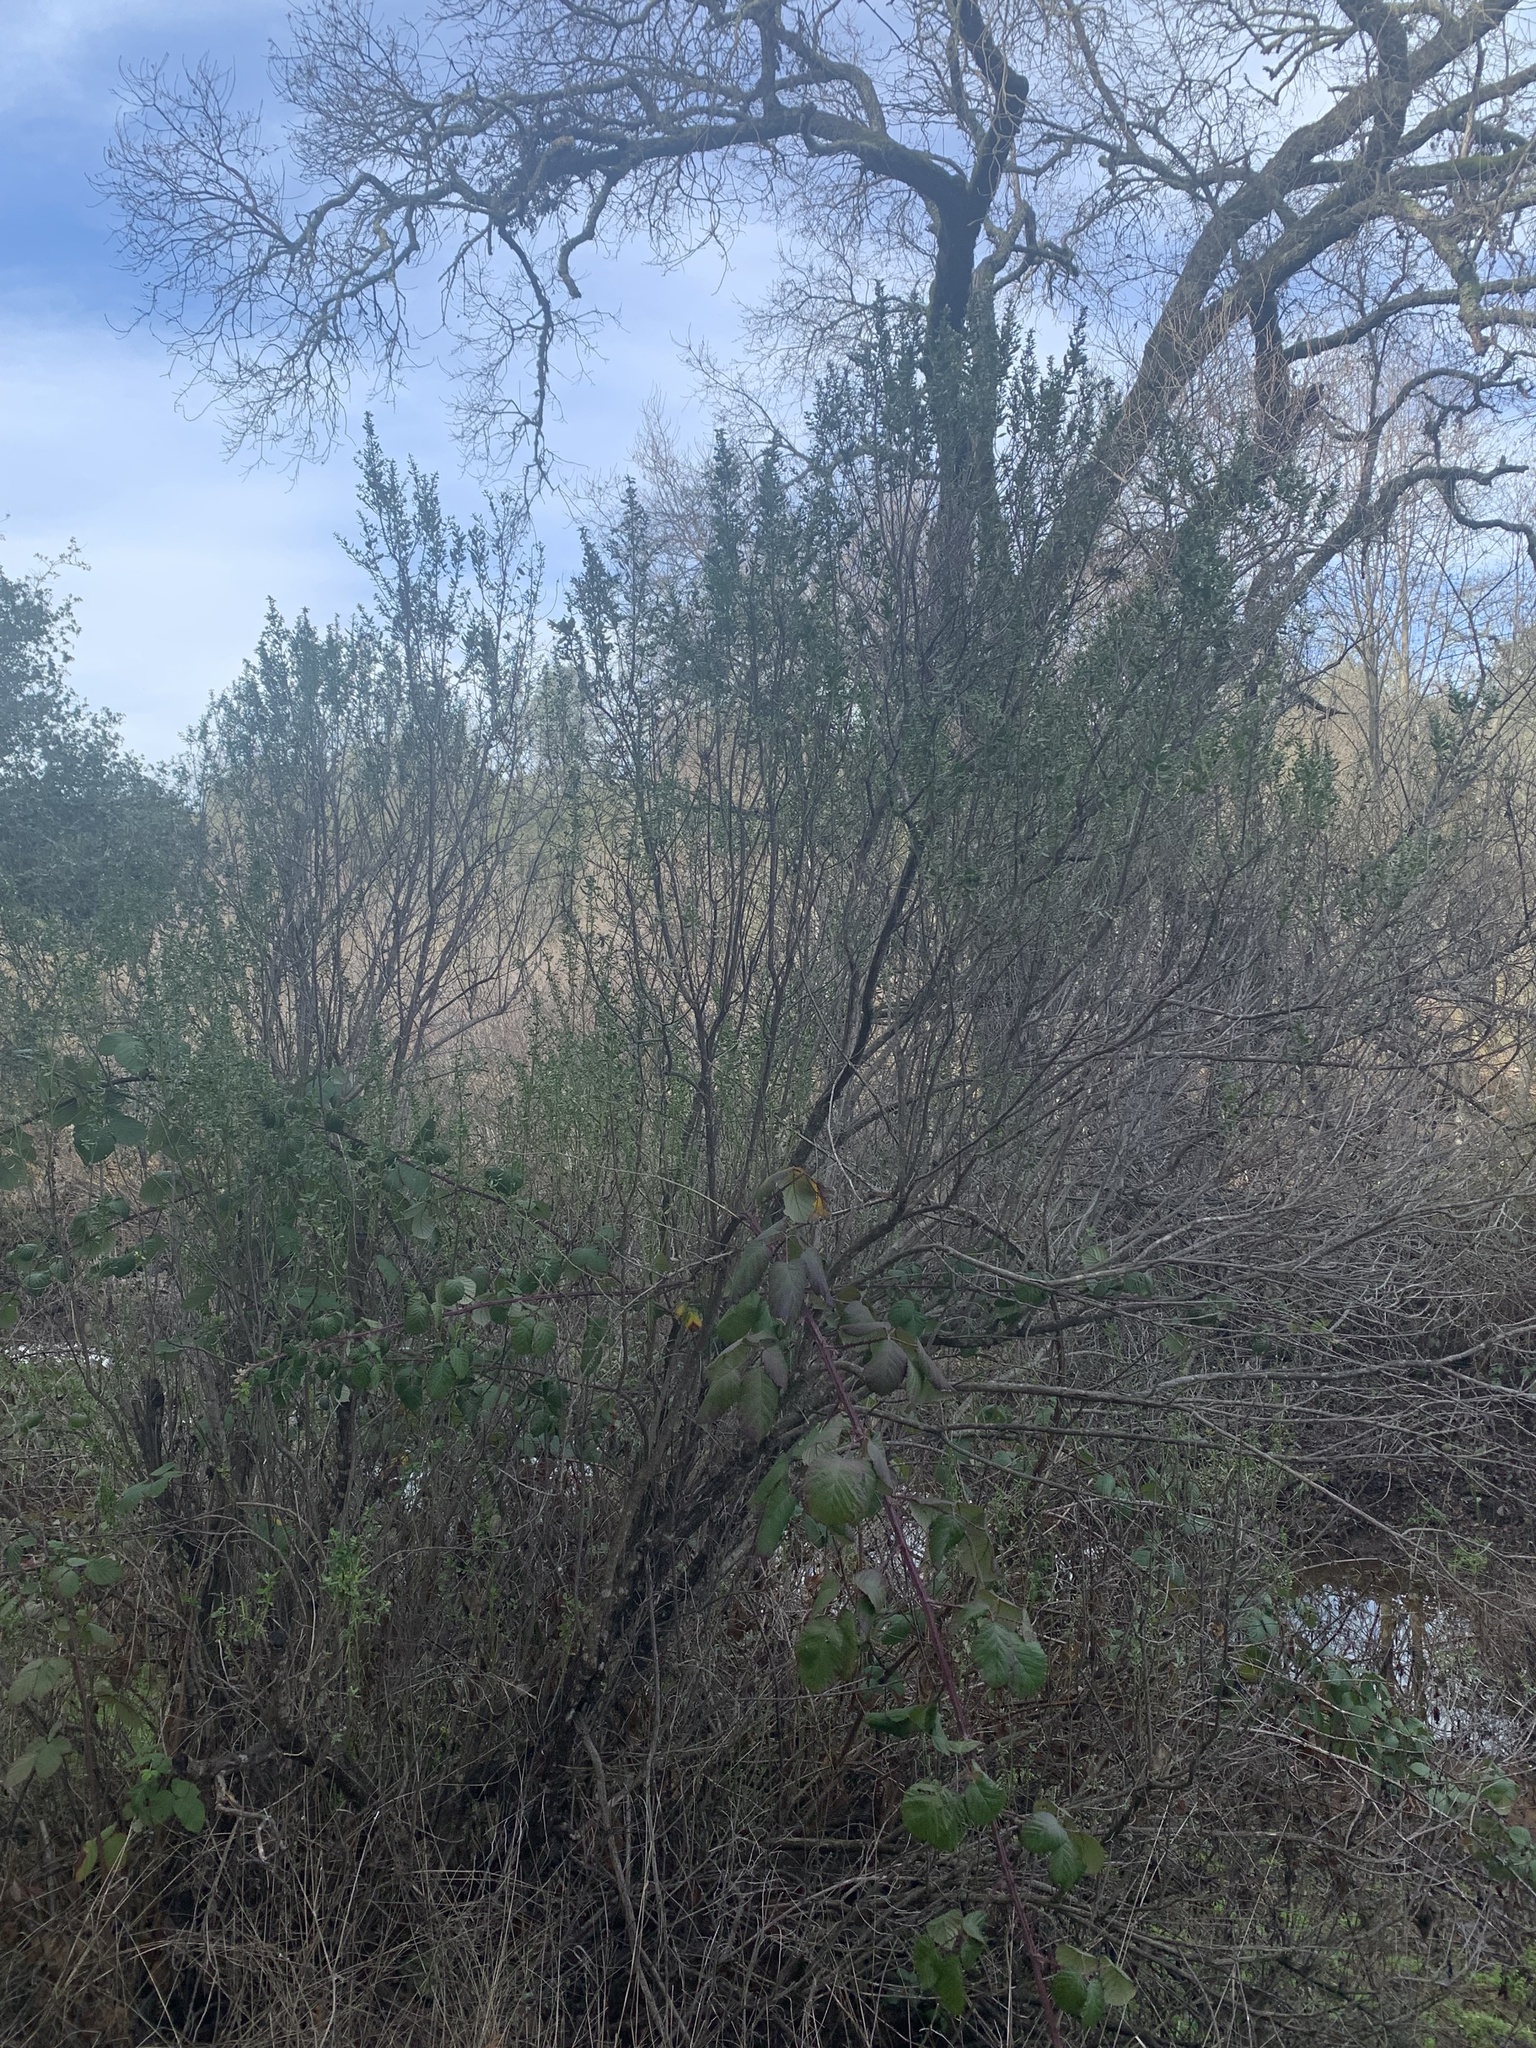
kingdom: Plantae
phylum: Tracheophyta
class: Magnoliopsida
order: Asterales
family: Asteraceae
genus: Baccharis
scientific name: Baccharis pilularis
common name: Coyotebrush
